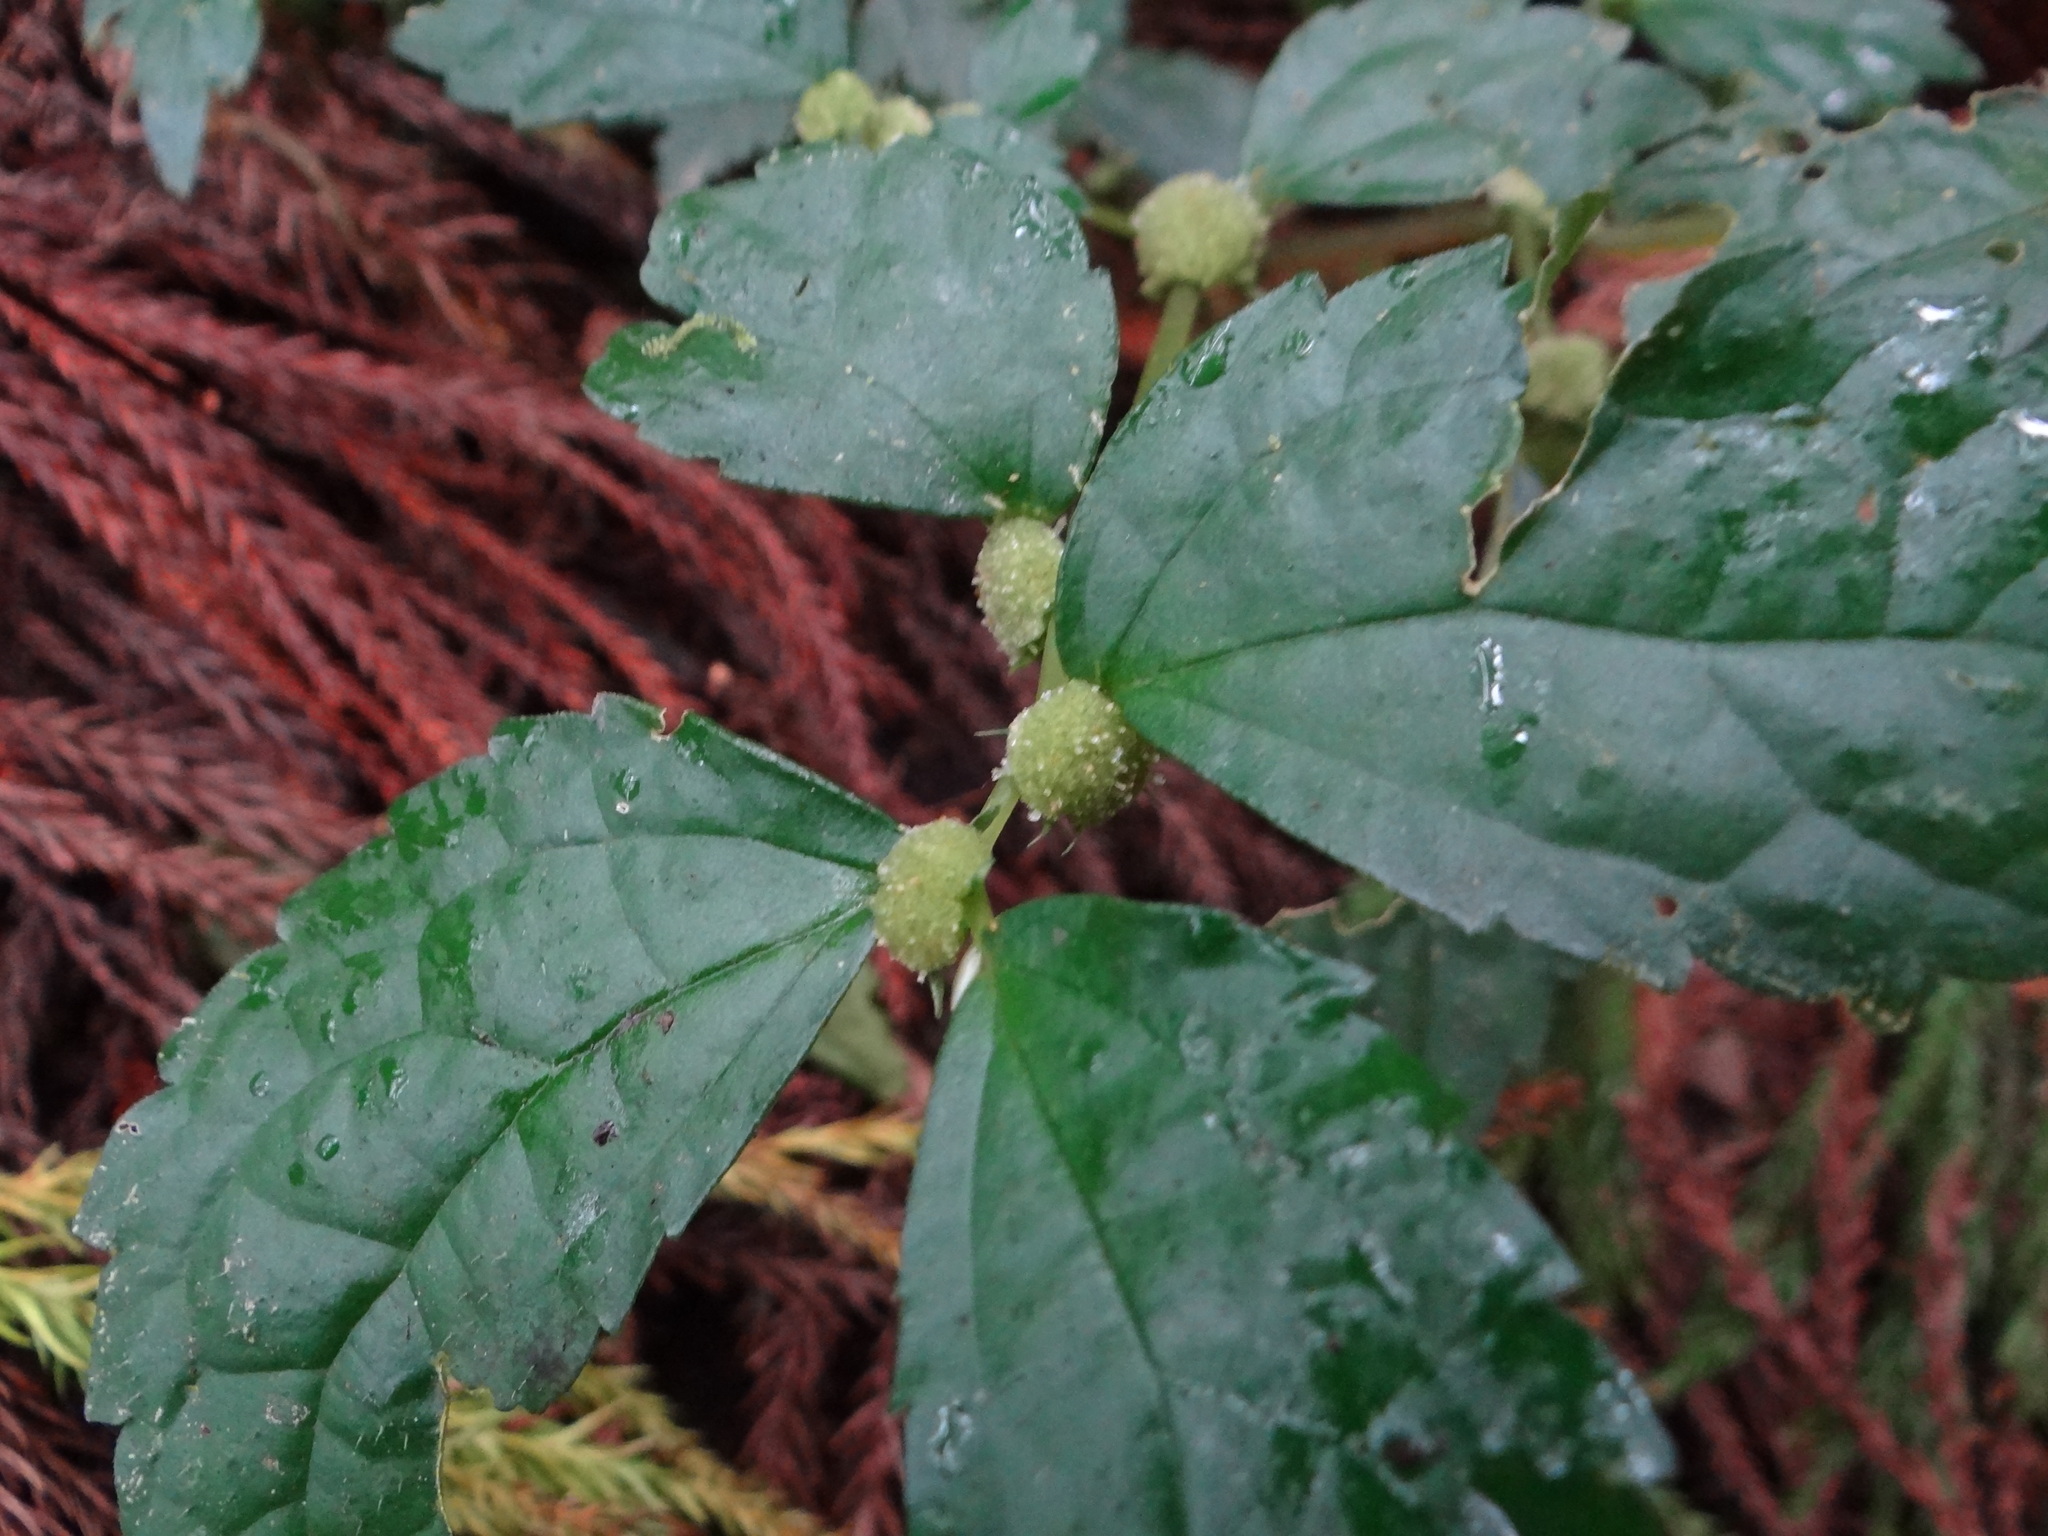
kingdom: Plantae
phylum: Tracheophyta
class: Magnoliopsida
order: Rosales
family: Urticaceae
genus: Elatostema
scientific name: Elatostema cyrtandrifolium
